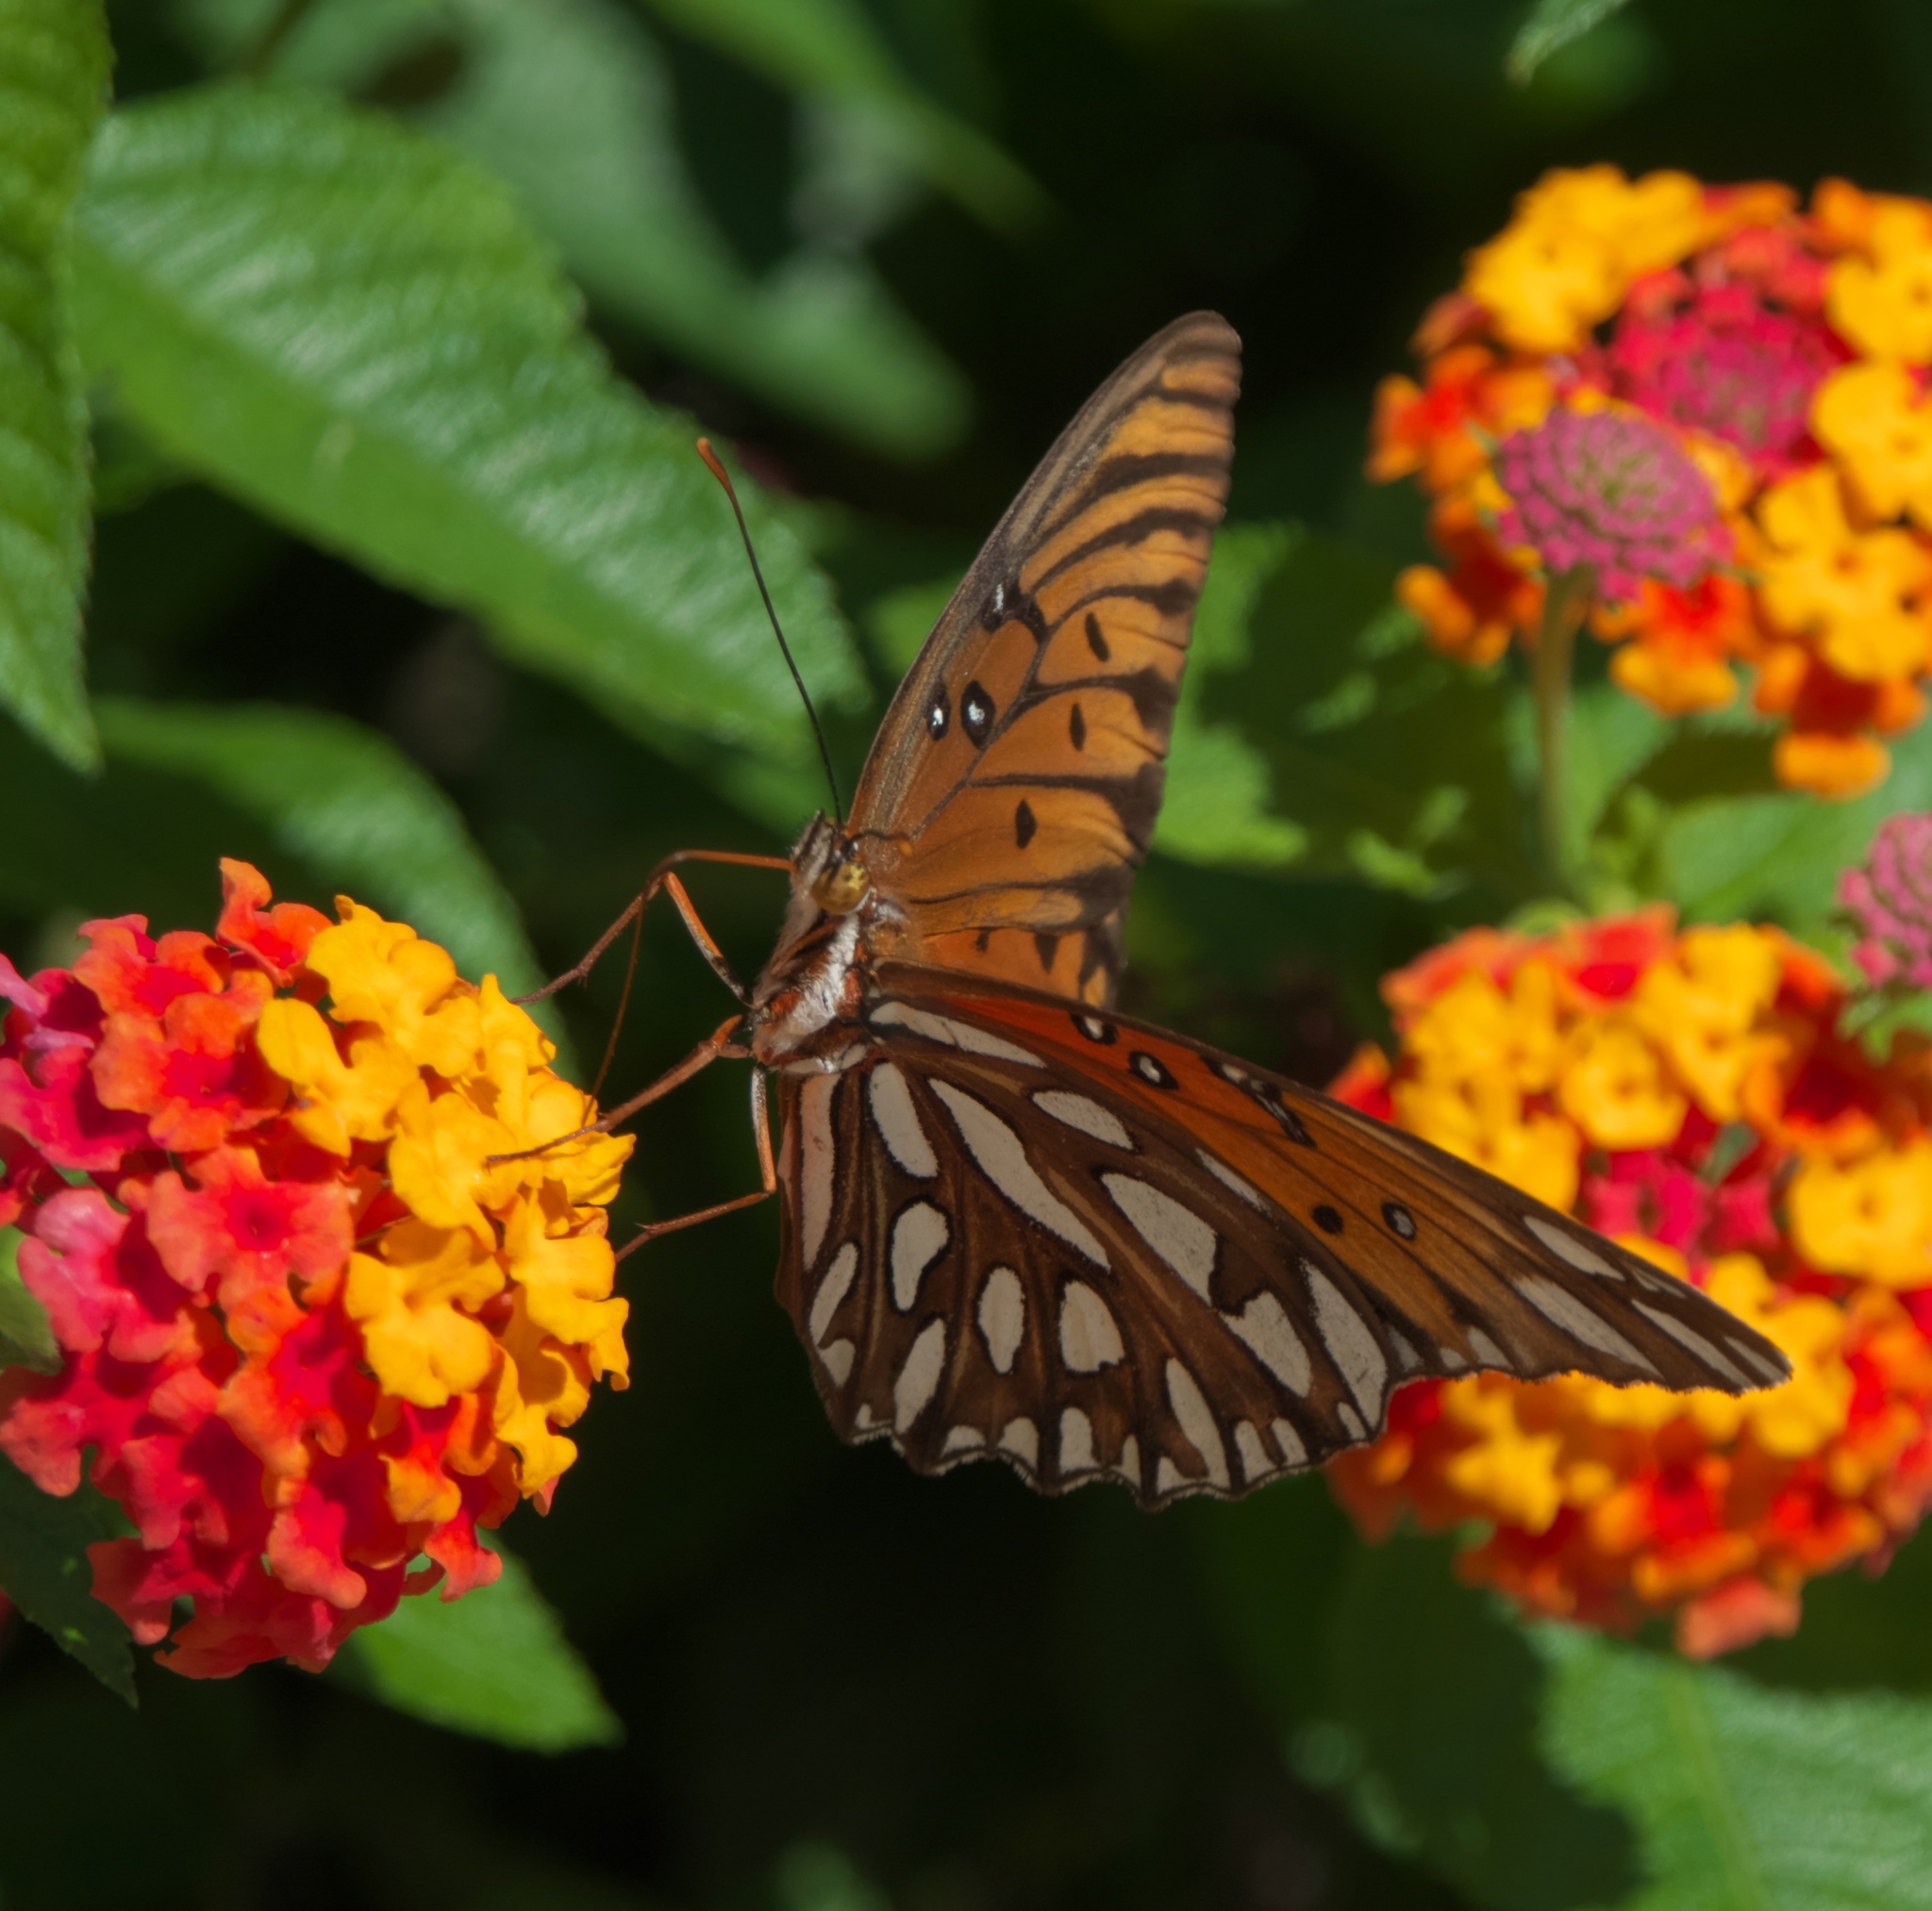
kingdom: Animalia
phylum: Arthropoda
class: Insecta
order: Lepidoptera
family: Nymphalidae
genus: Dione
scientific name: Dione vanillae
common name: Gulf fritillary
